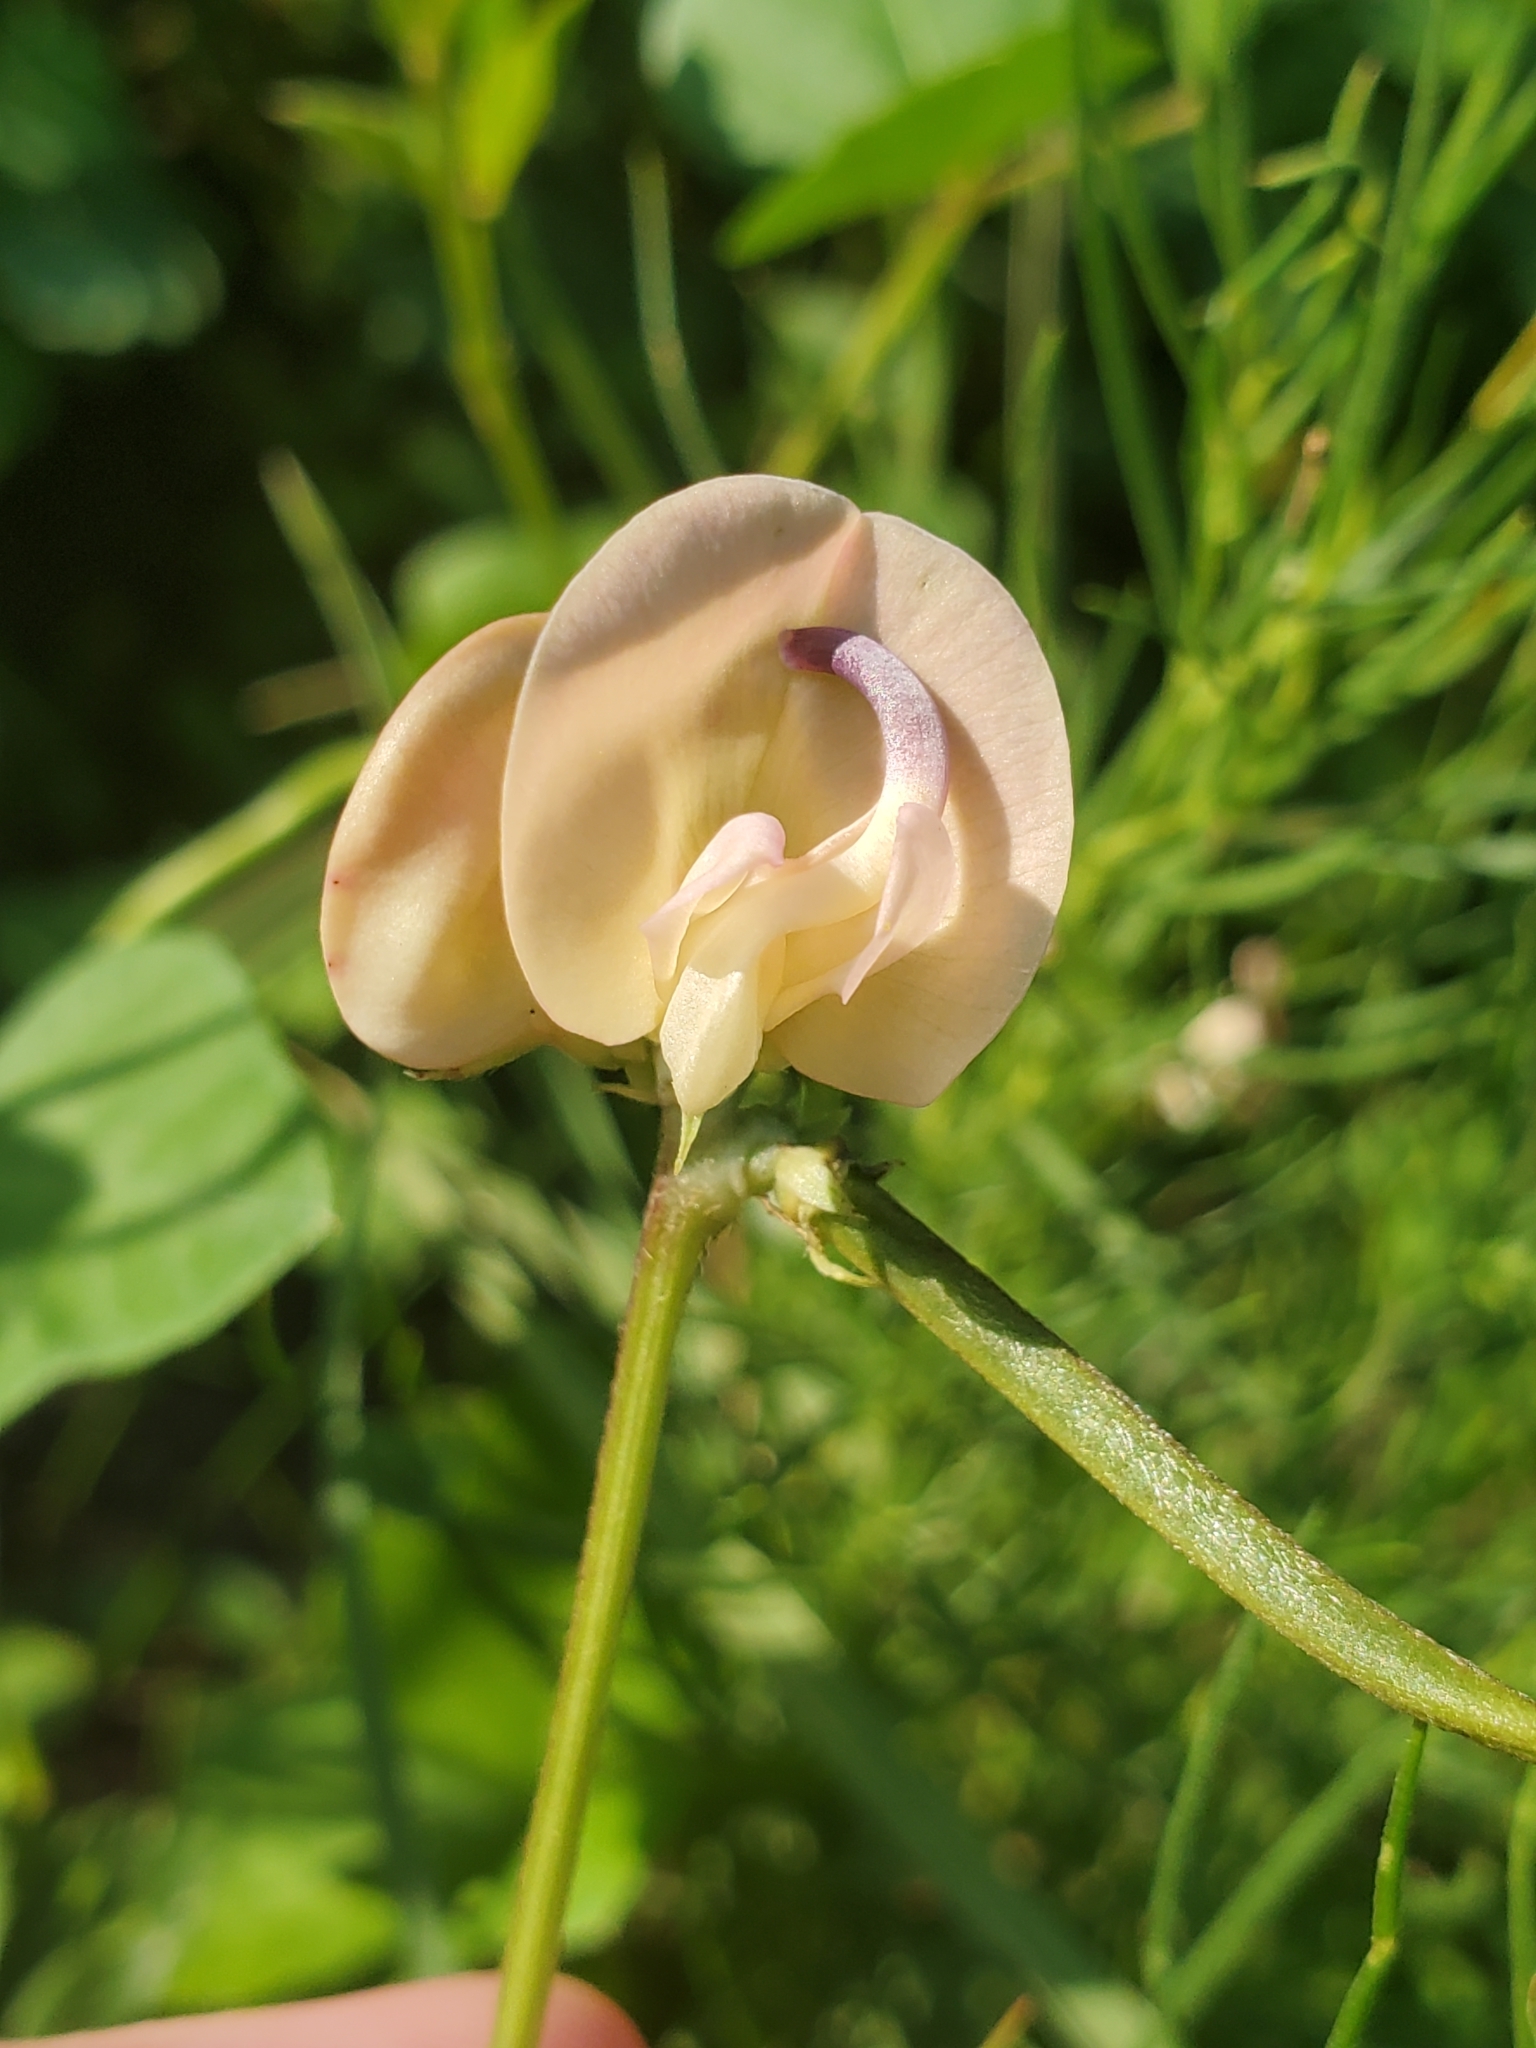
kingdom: Plantae
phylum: Tracheophyta
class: Magnoliopsida
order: Fabales
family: Fabaceae
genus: Strophostyles
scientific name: Strophostyles helvola
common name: Trailing wild bean
